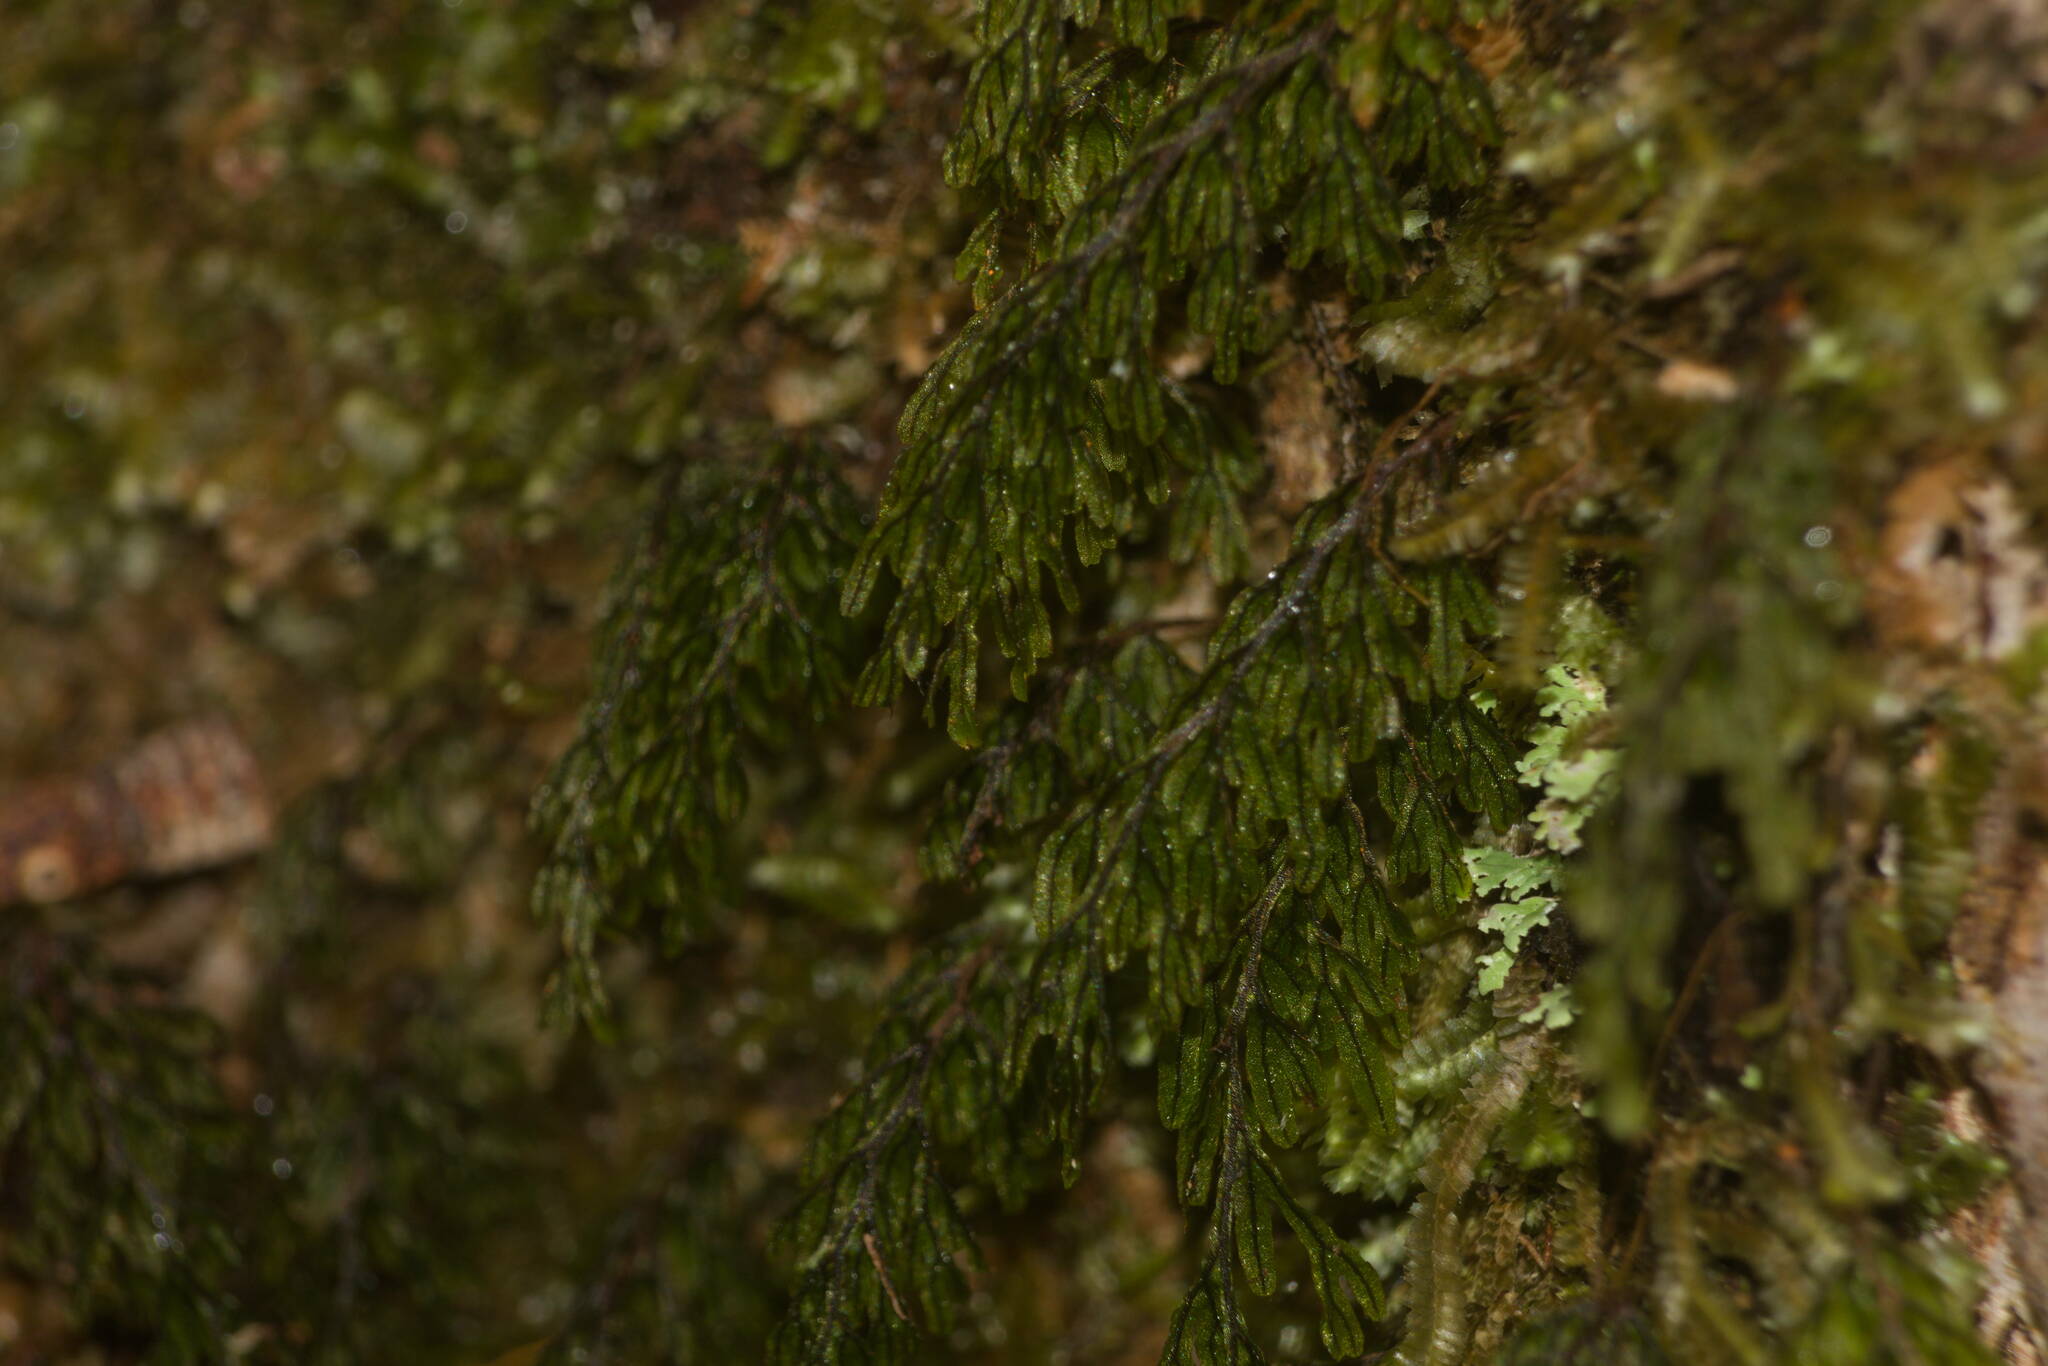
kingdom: Plantae
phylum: Tracheophyta
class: Polypodiopsida
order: Hymenophyllales
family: Hymenophyllaceae
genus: Hymenophyllum
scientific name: Hymenophyllum lanceolatum
